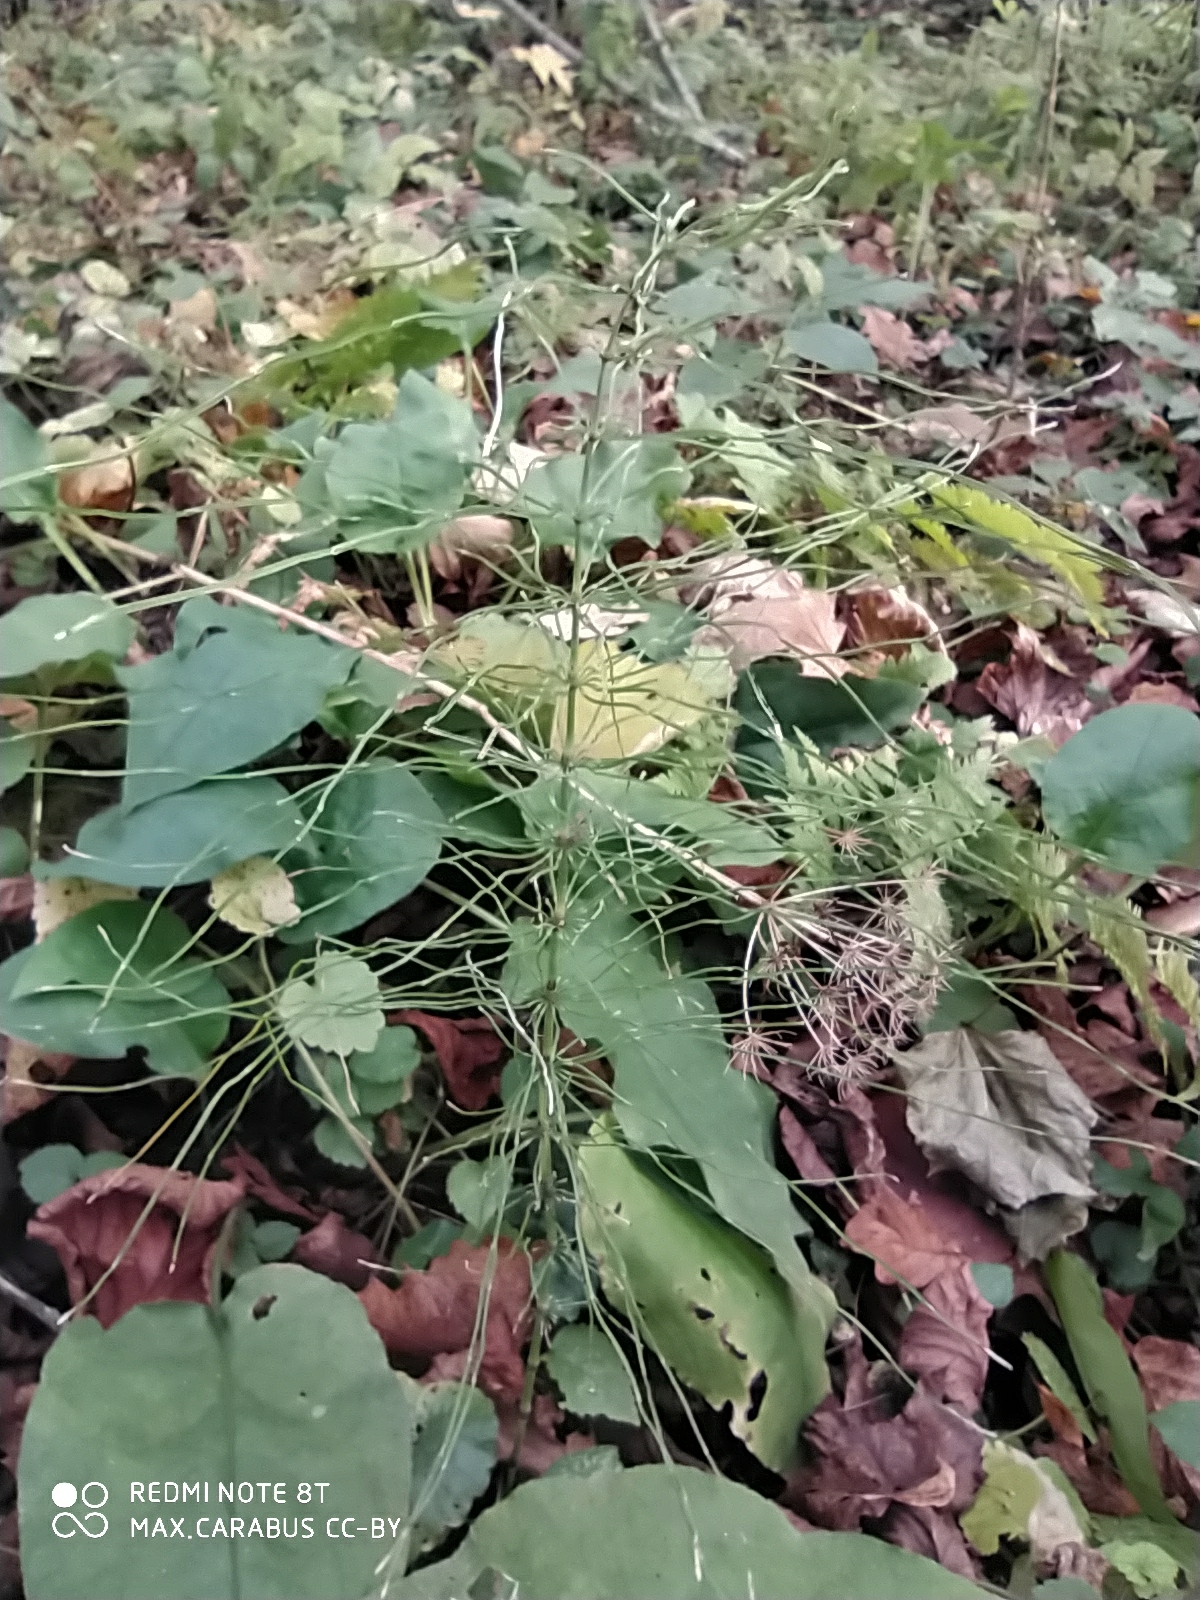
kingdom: Plantae
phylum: Tracheophyta
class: Polypodiopsida
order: Equisetales
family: Equisetaceae
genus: Equisetum
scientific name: Equisetum pratense
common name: Meadow horsetail
